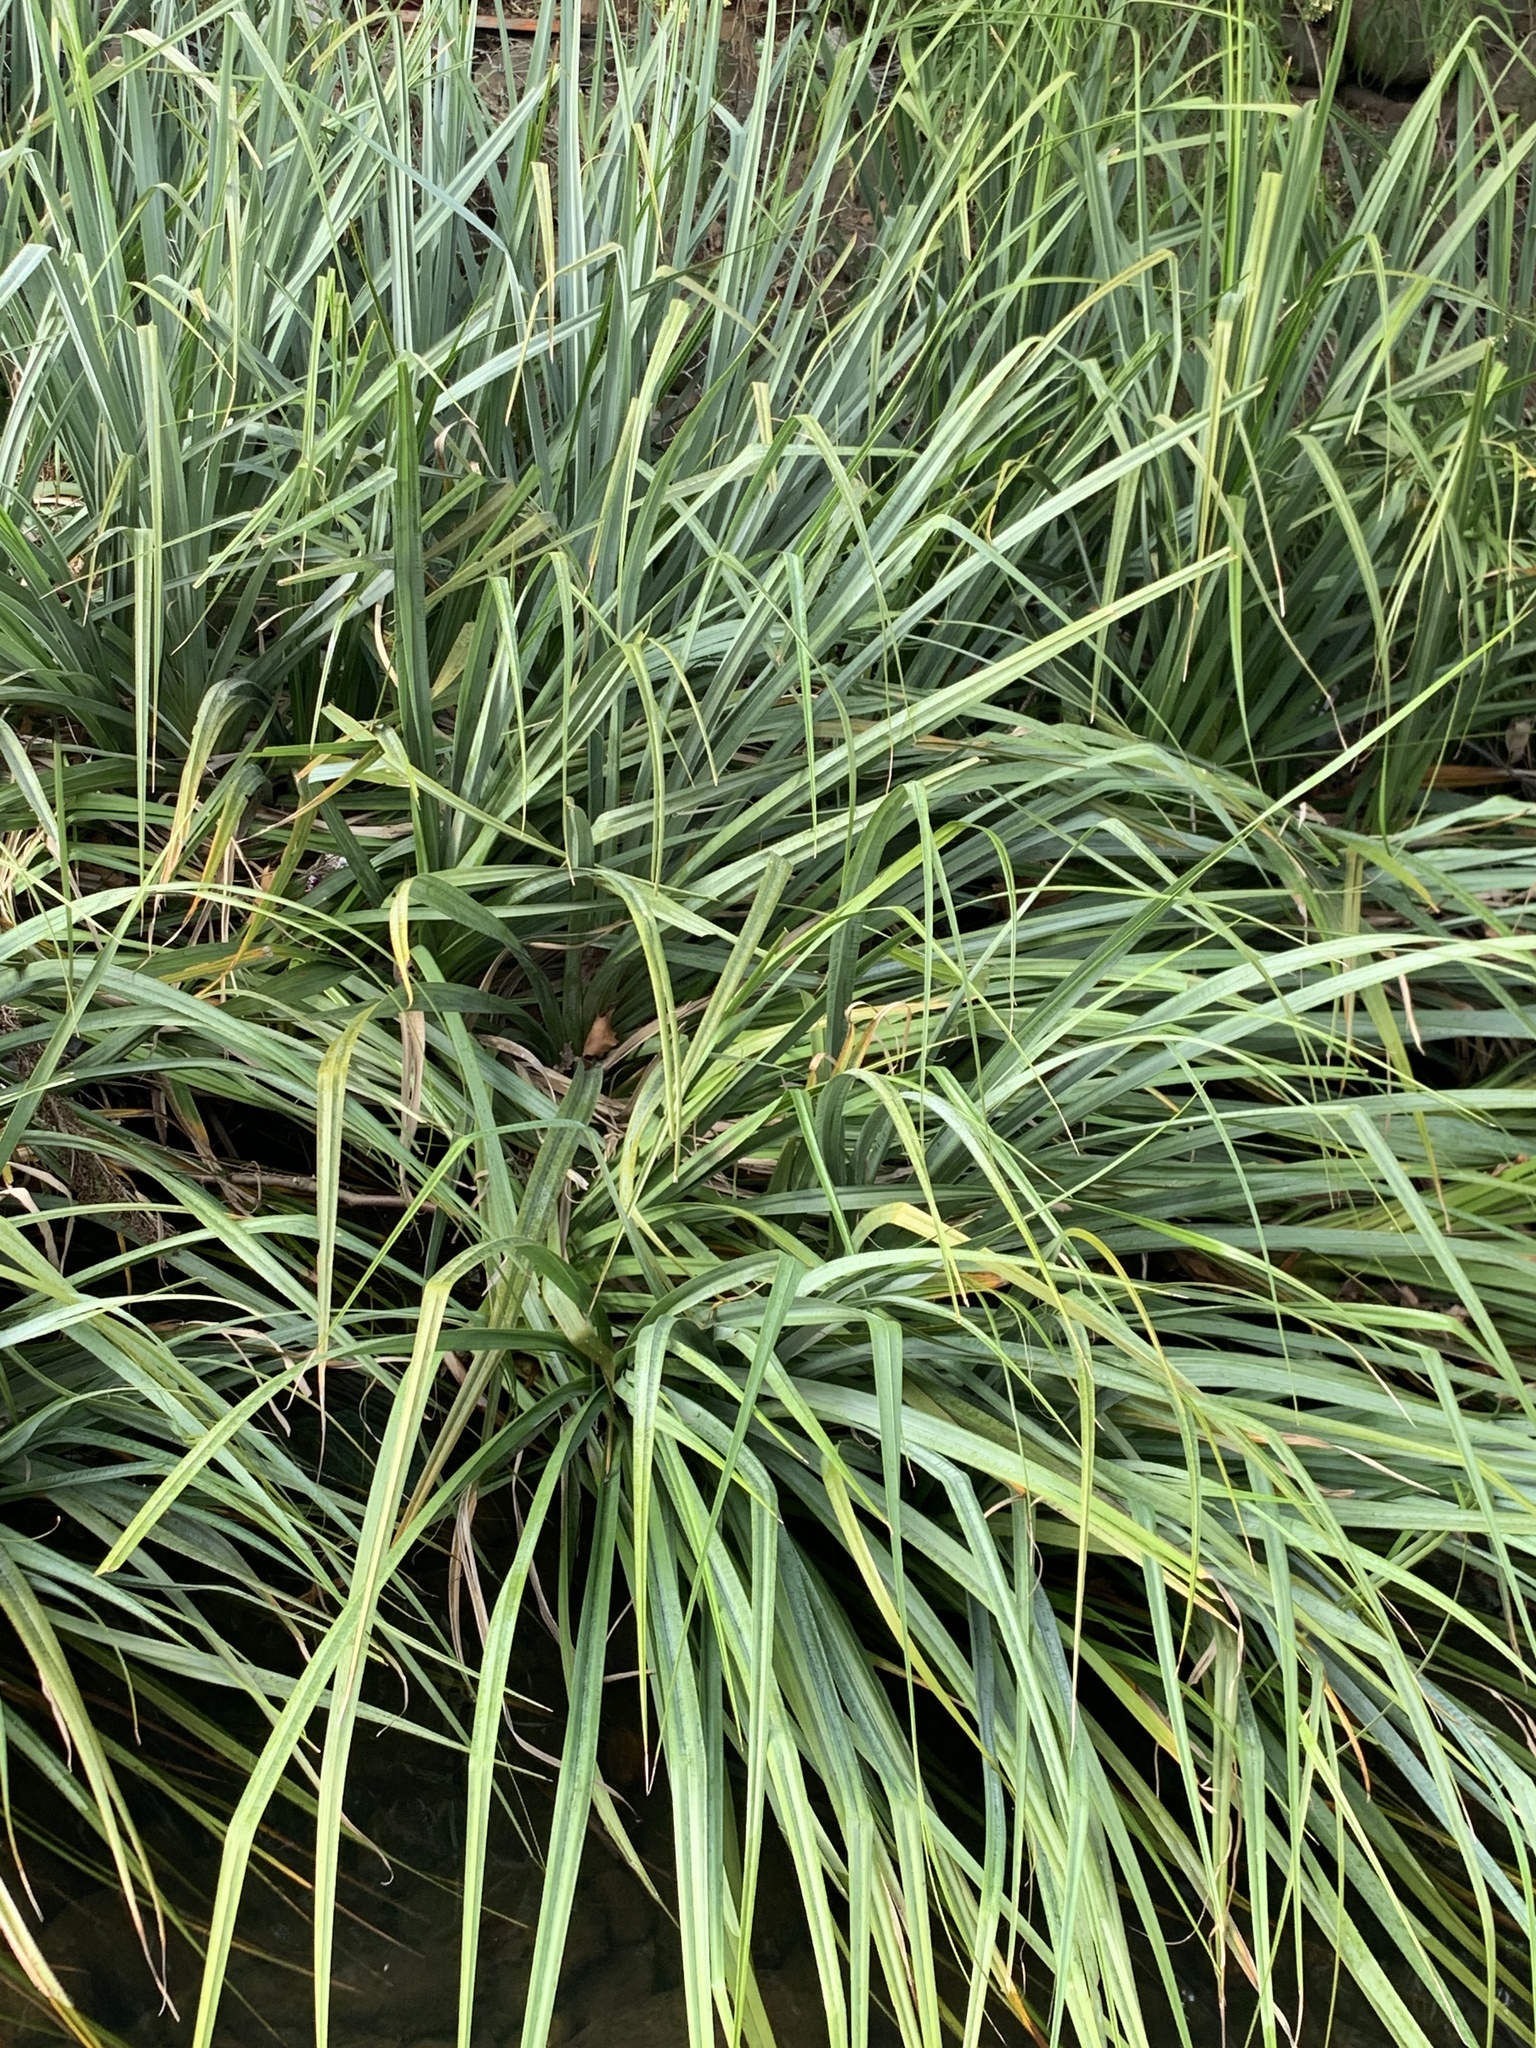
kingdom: Plantae
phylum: Tracheophyta
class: Liliopsida
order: Poales
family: Thurniaceae
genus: Prionium
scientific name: Prionium serratum
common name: Palmiet
